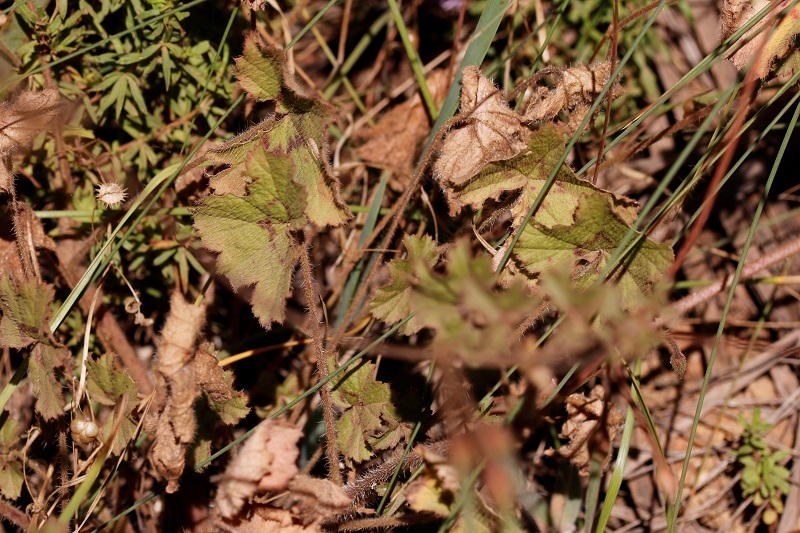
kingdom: Plantae
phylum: Tracheophyta
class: Magnoliopsida
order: Geraniales
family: Geraniaceae
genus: Pelargonium
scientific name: Pelargonium elongatum
